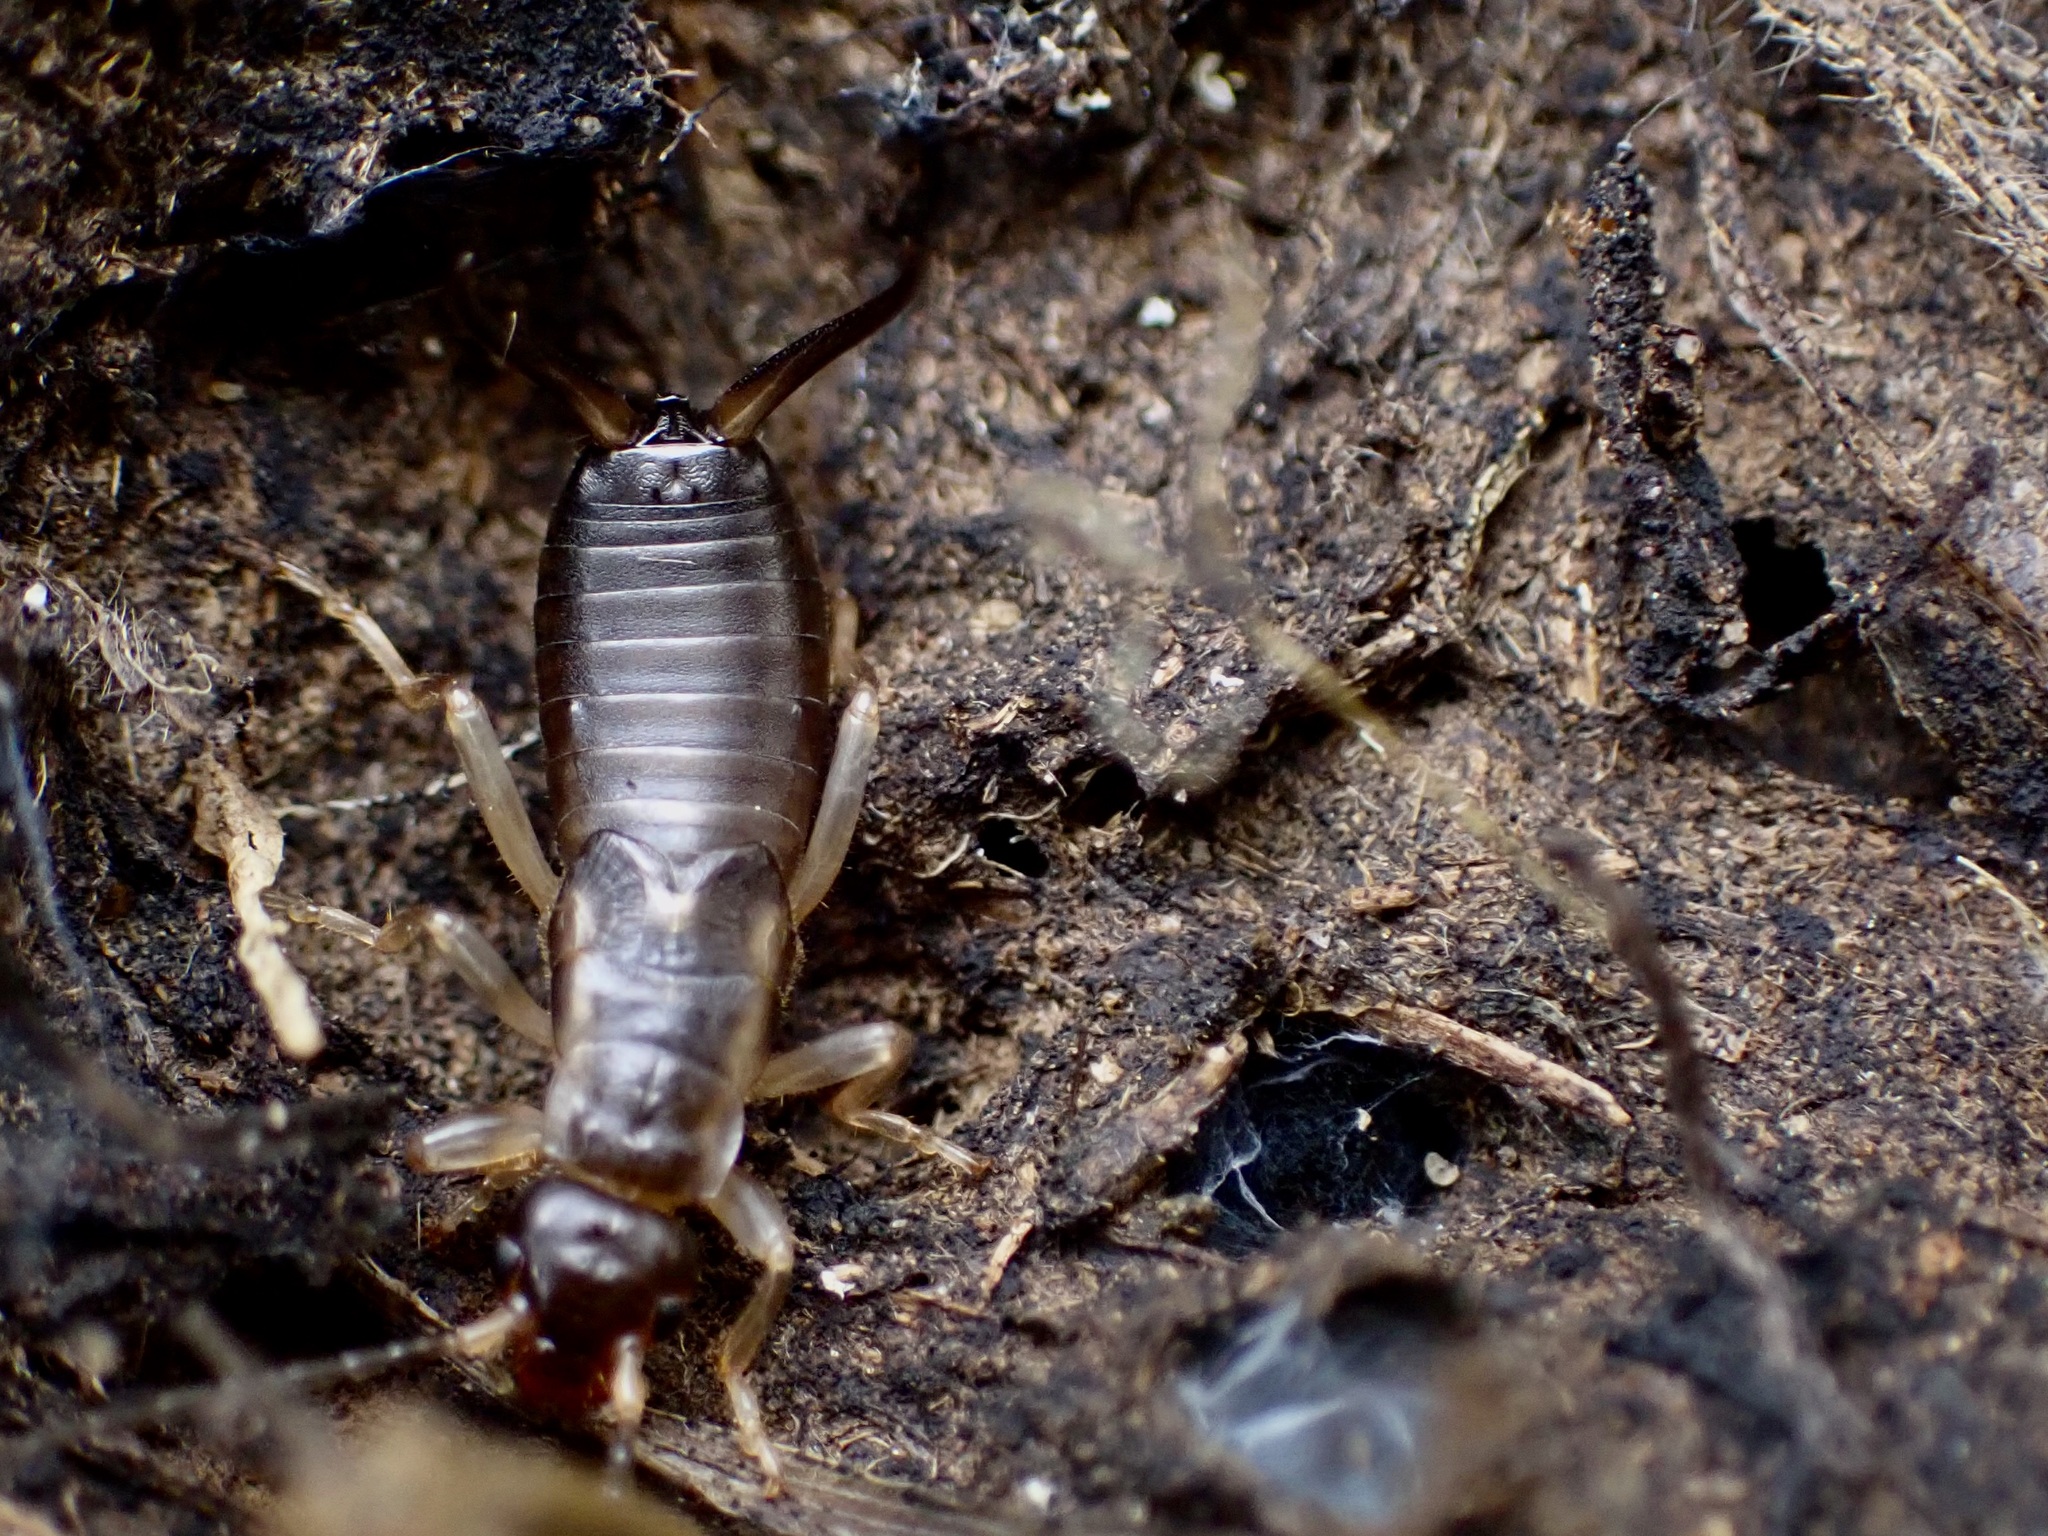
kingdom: Animalia
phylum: Arthropoda
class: Insecta
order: Dermaptera
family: Forficulidae
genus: Forficula
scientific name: Forficula
